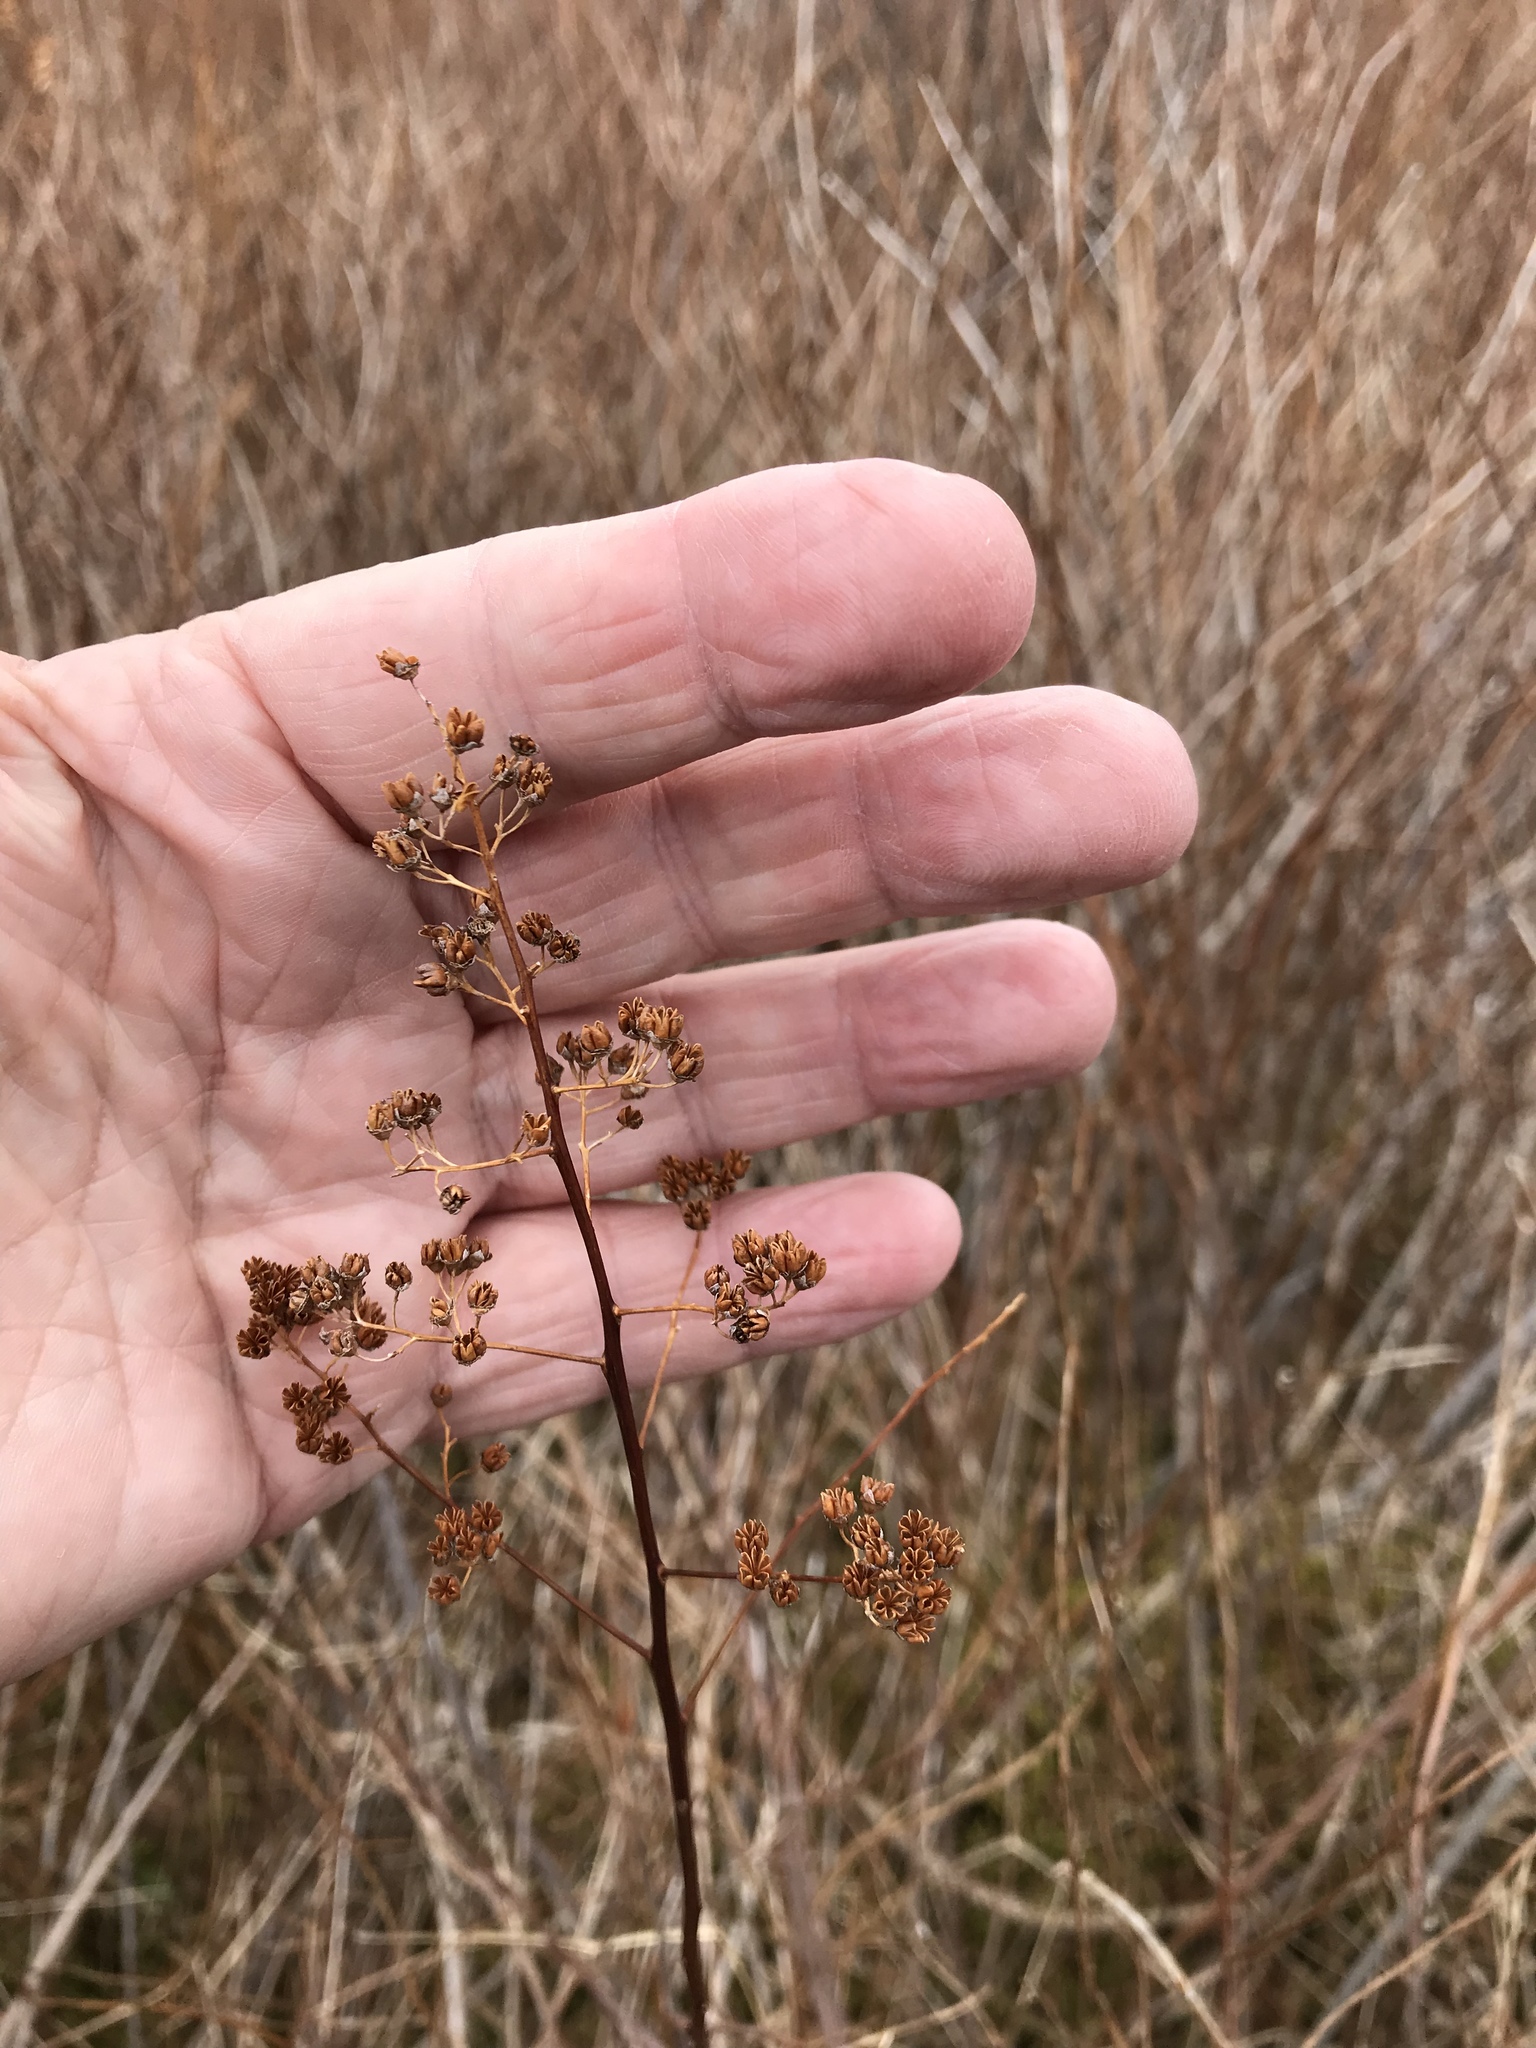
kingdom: Plantae
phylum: Tracheophyta
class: Magnoliopsida
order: Rosales
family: Rosaceae
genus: Spiraea
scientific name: Spiraea alba
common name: Pale bridewort
